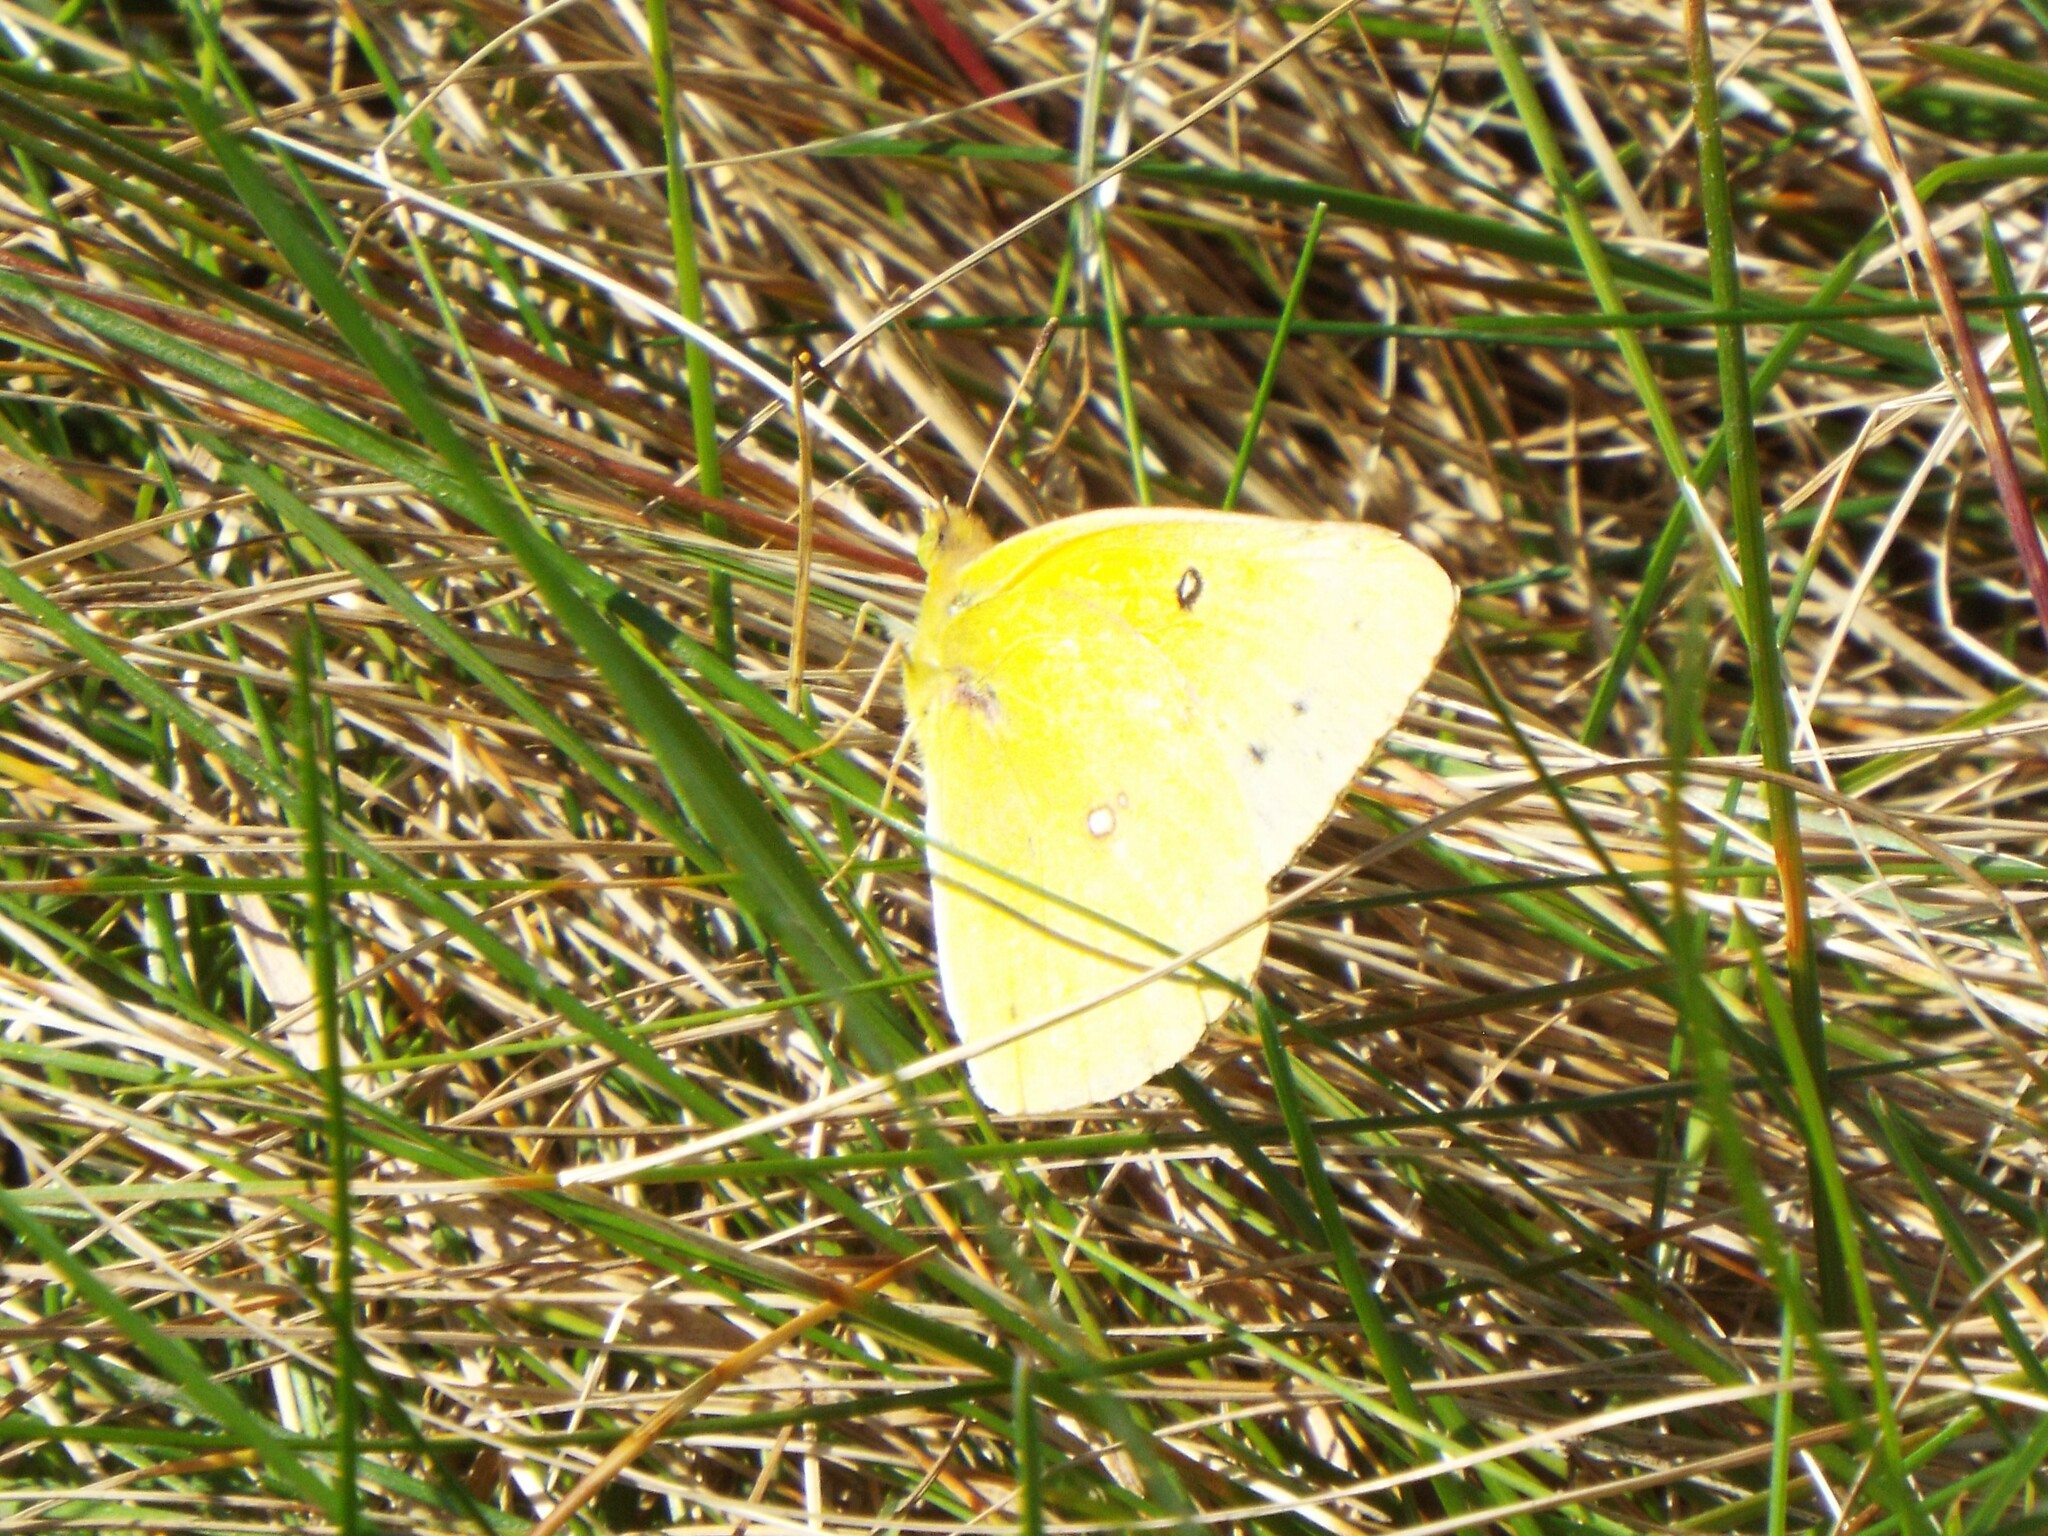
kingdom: Animalia
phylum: Arthropoda
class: Insecta
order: Lepidoptera
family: Pieridae
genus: Colias
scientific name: Colias eurytheme
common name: Alfalfa butterfly
